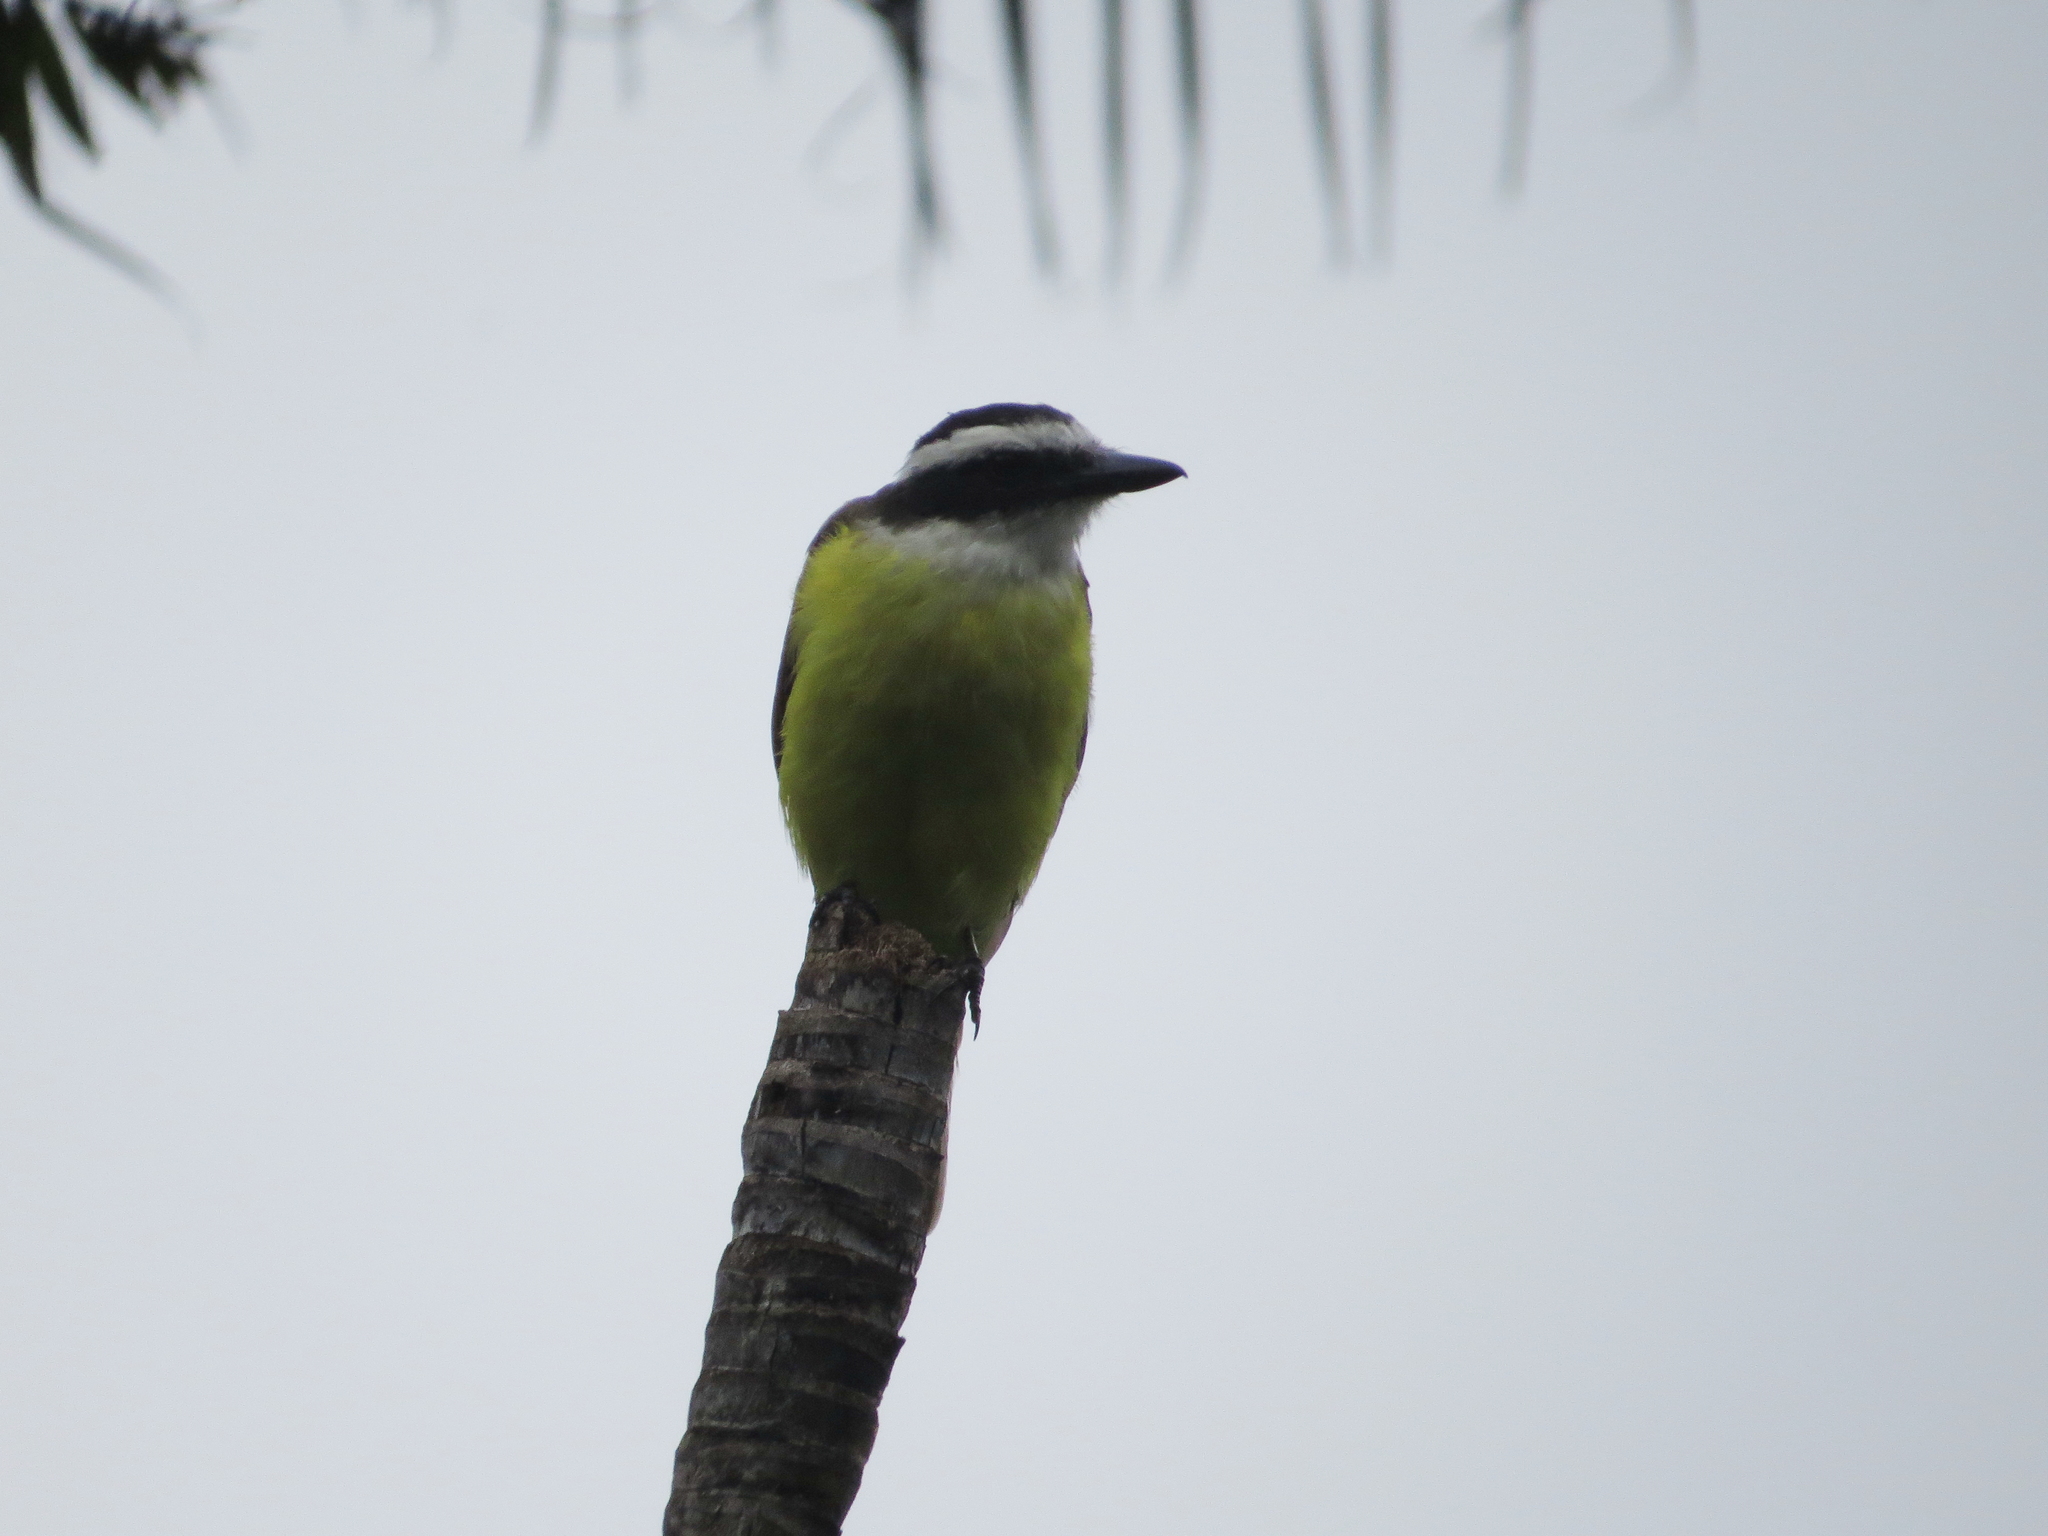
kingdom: Animalia
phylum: Chordata
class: Aves
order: Passeriformes
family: Tyrannidae
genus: Pitangus
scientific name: Pitangus sulphuratus
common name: Great kiskadee
